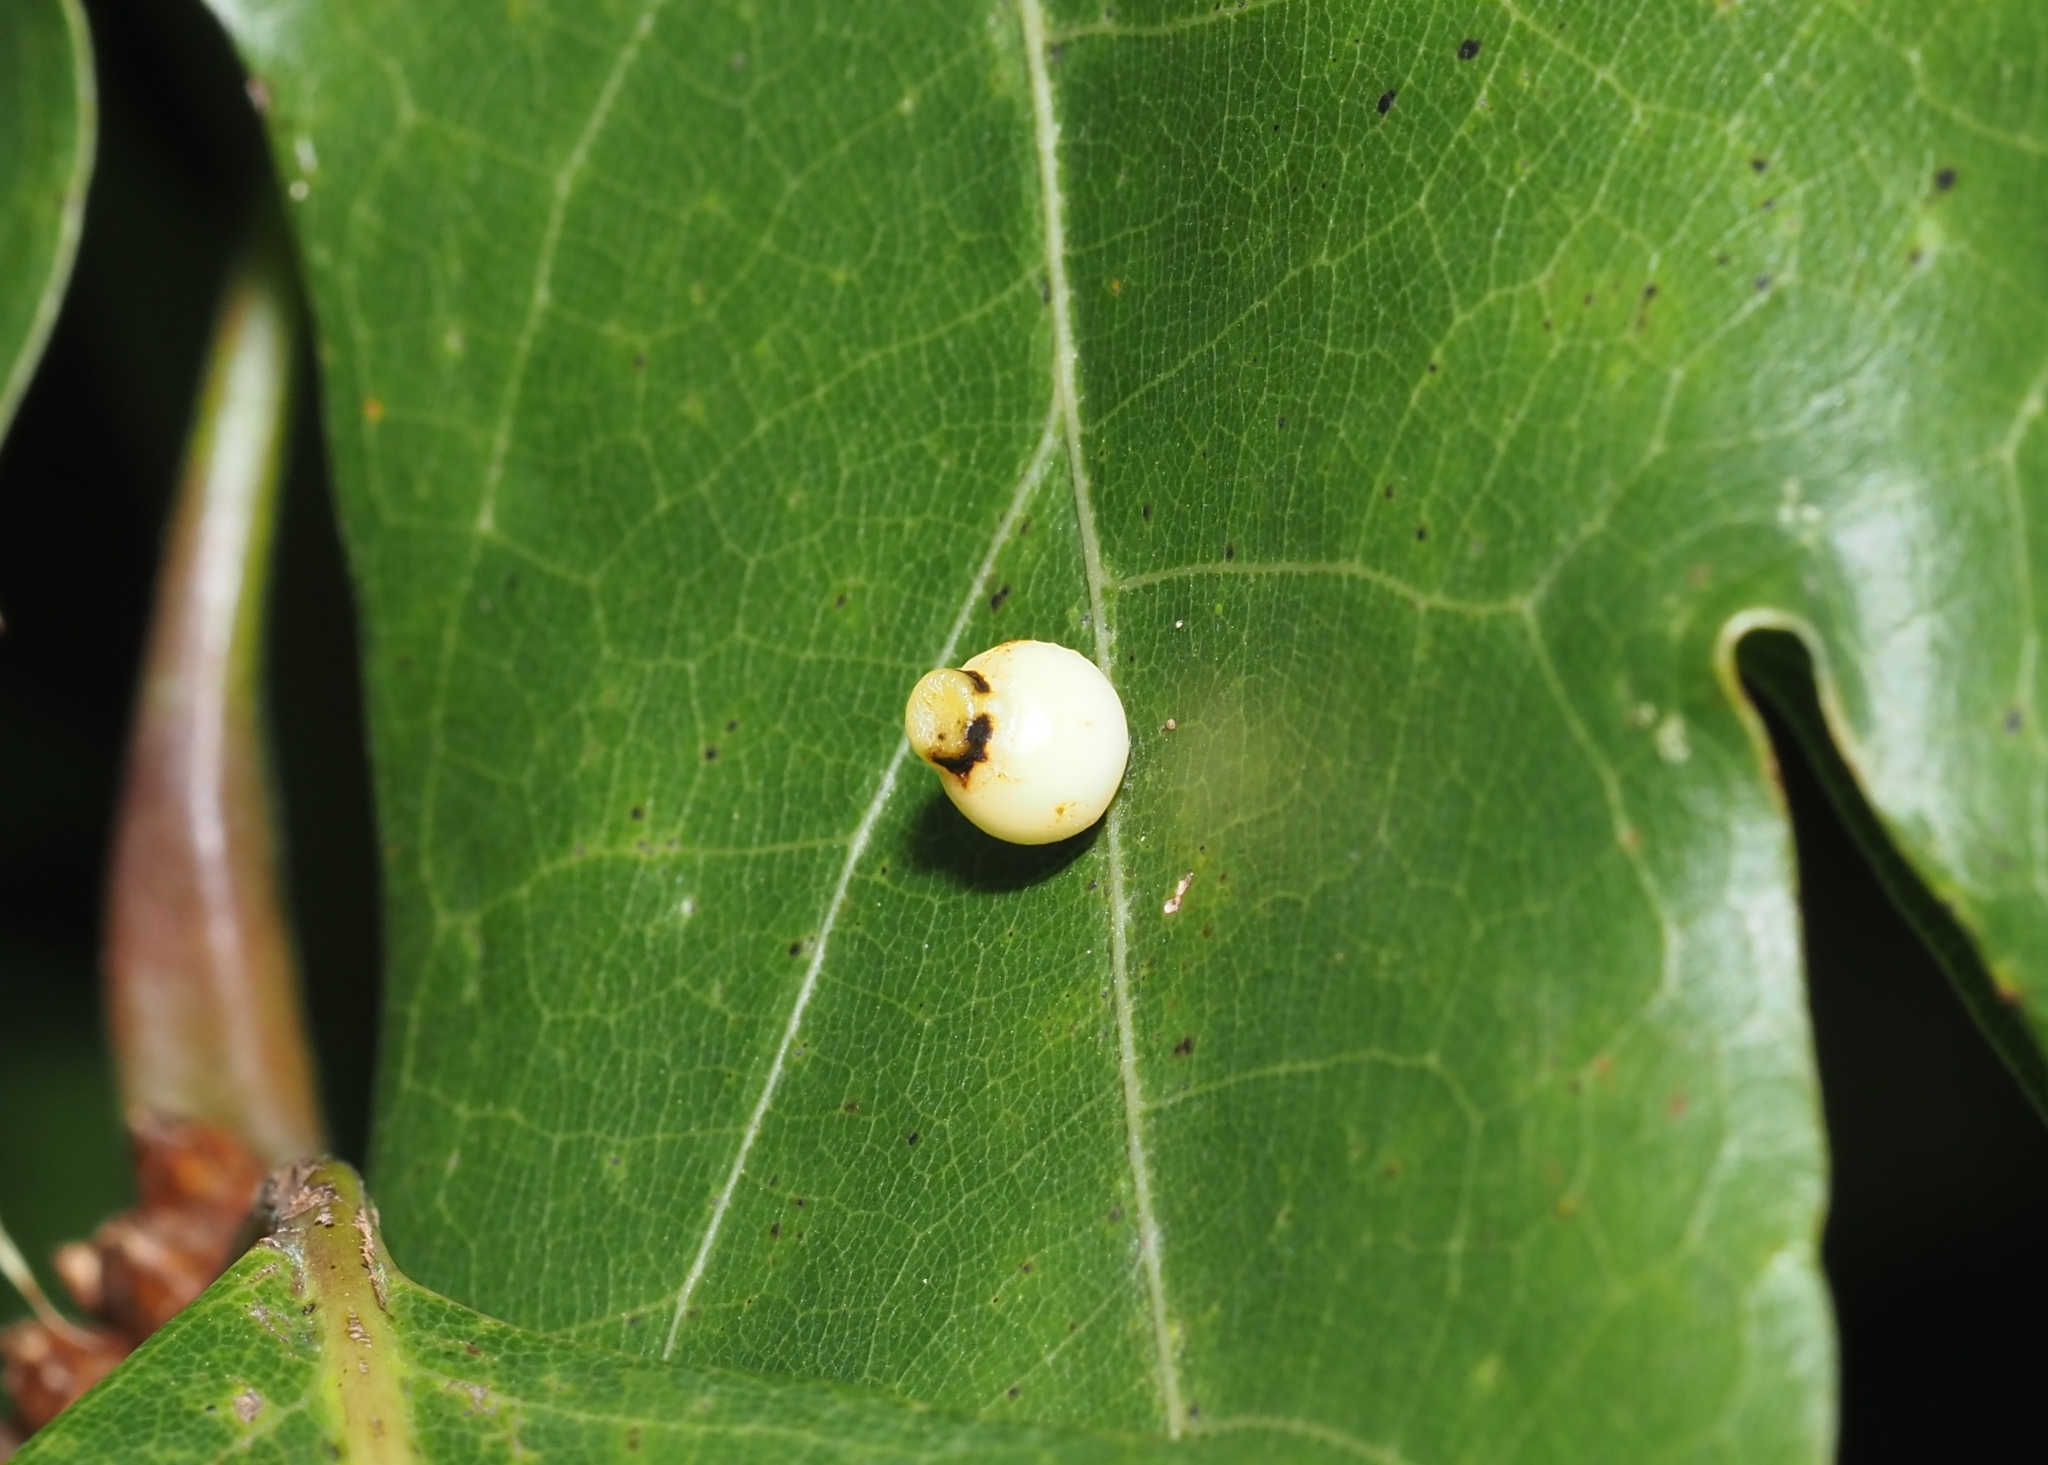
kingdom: Animalia
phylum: Arthropoda
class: Insecta
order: Hymenoptera
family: Cynipidae
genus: Kokkocynips
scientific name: Kokkocynips rileyi
